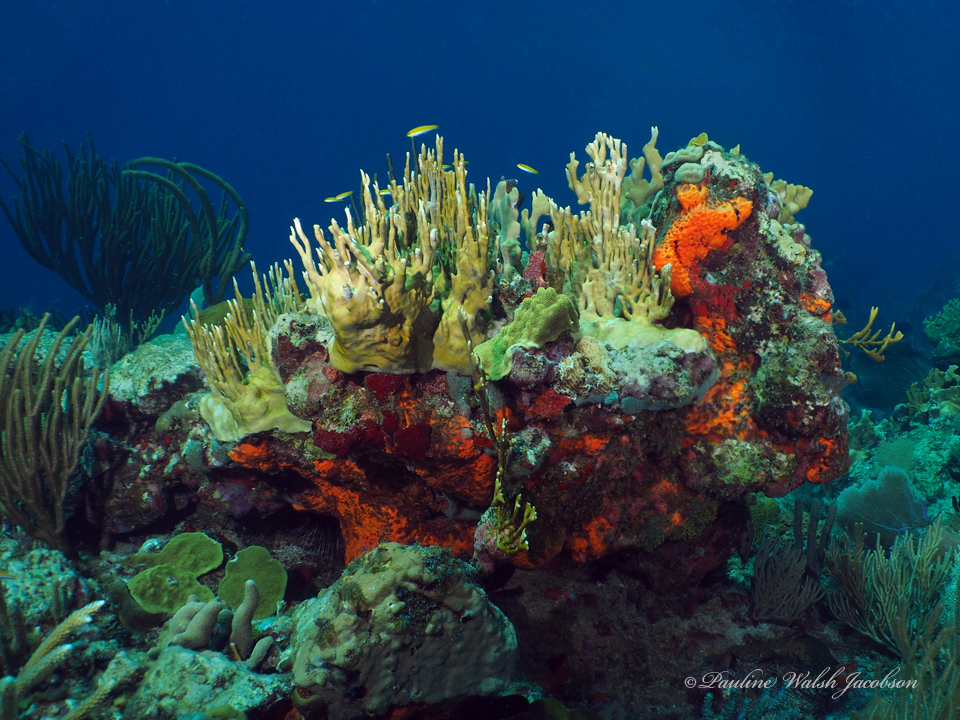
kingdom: Animalia
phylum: Cnidaria
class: Hydrozoa
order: Anthoathecata
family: Milleporidae
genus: Millepora
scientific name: Millepora alcicornis
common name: Branching fire coral
